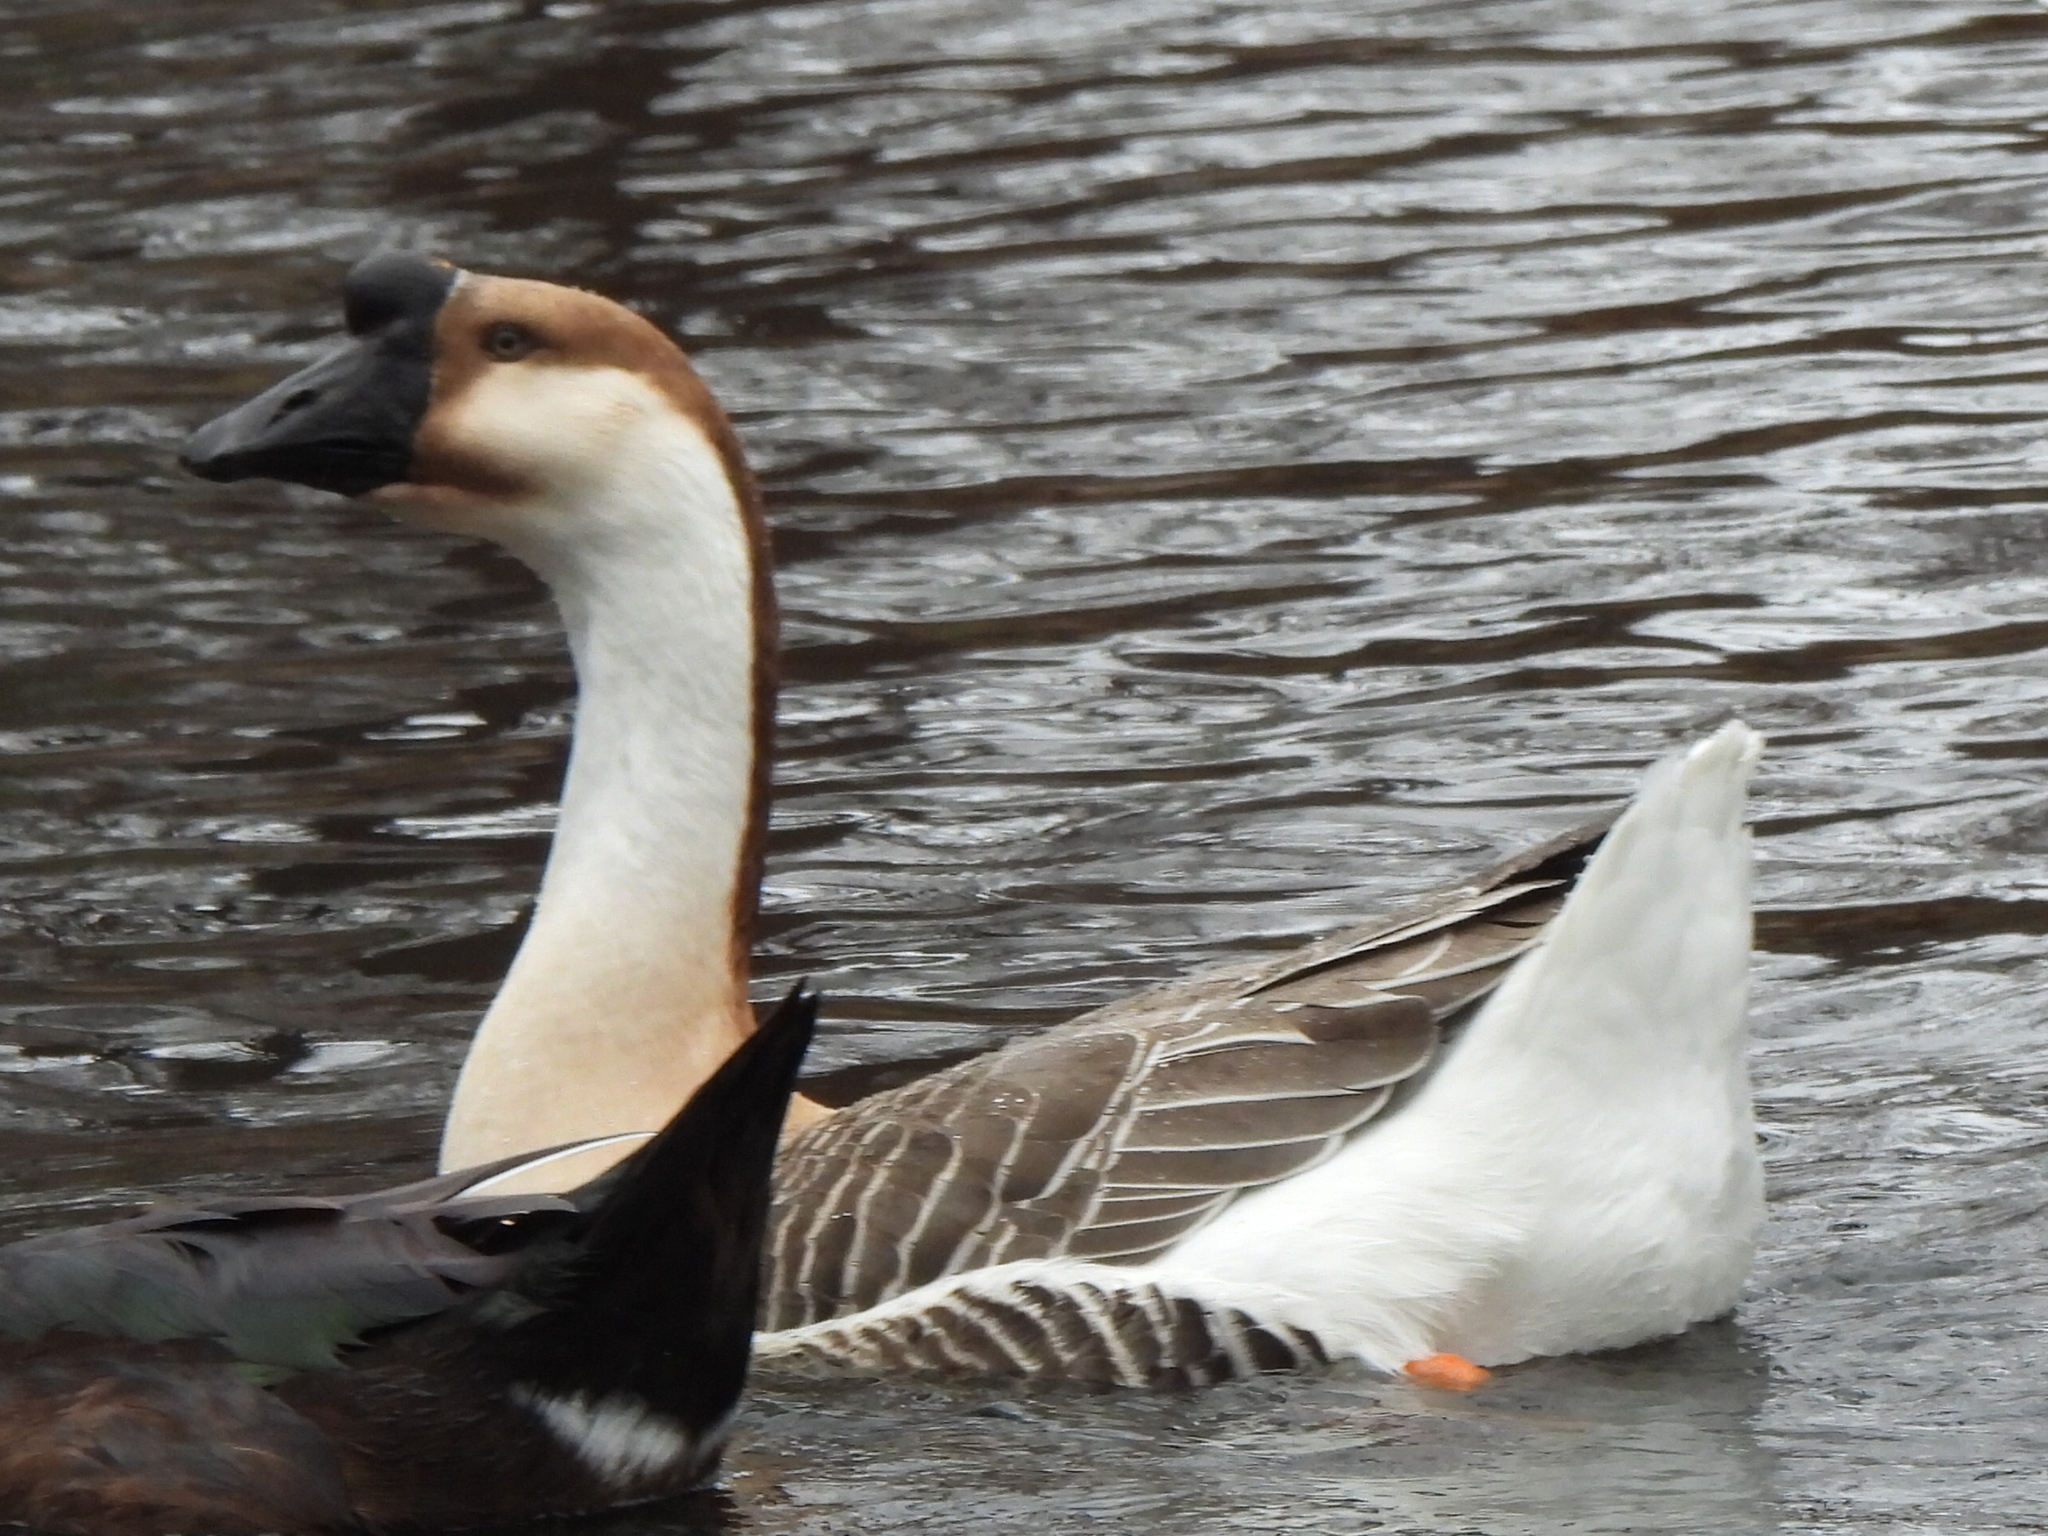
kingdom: Animalia
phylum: Chordata
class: Aves
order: Anseriformes
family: Anatidae
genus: Anser
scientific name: Anser cygnoides
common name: Swan goose
